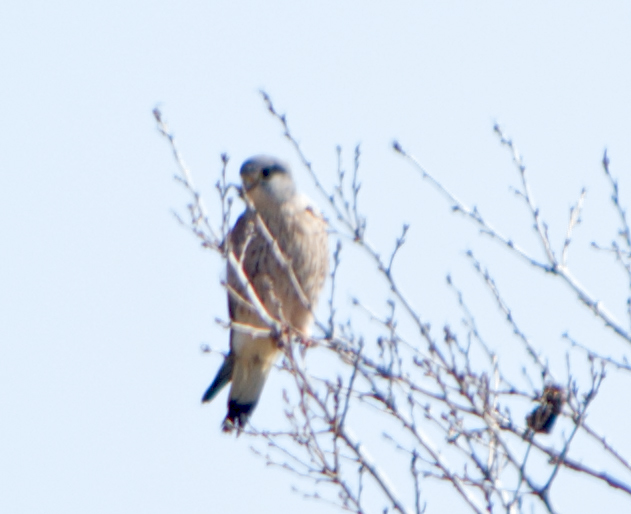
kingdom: Animalia
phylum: Chordata
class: Aves
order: Falconiformes
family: Falconidae
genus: Falco
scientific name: Falco naumanni
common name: Lesser kestrel
